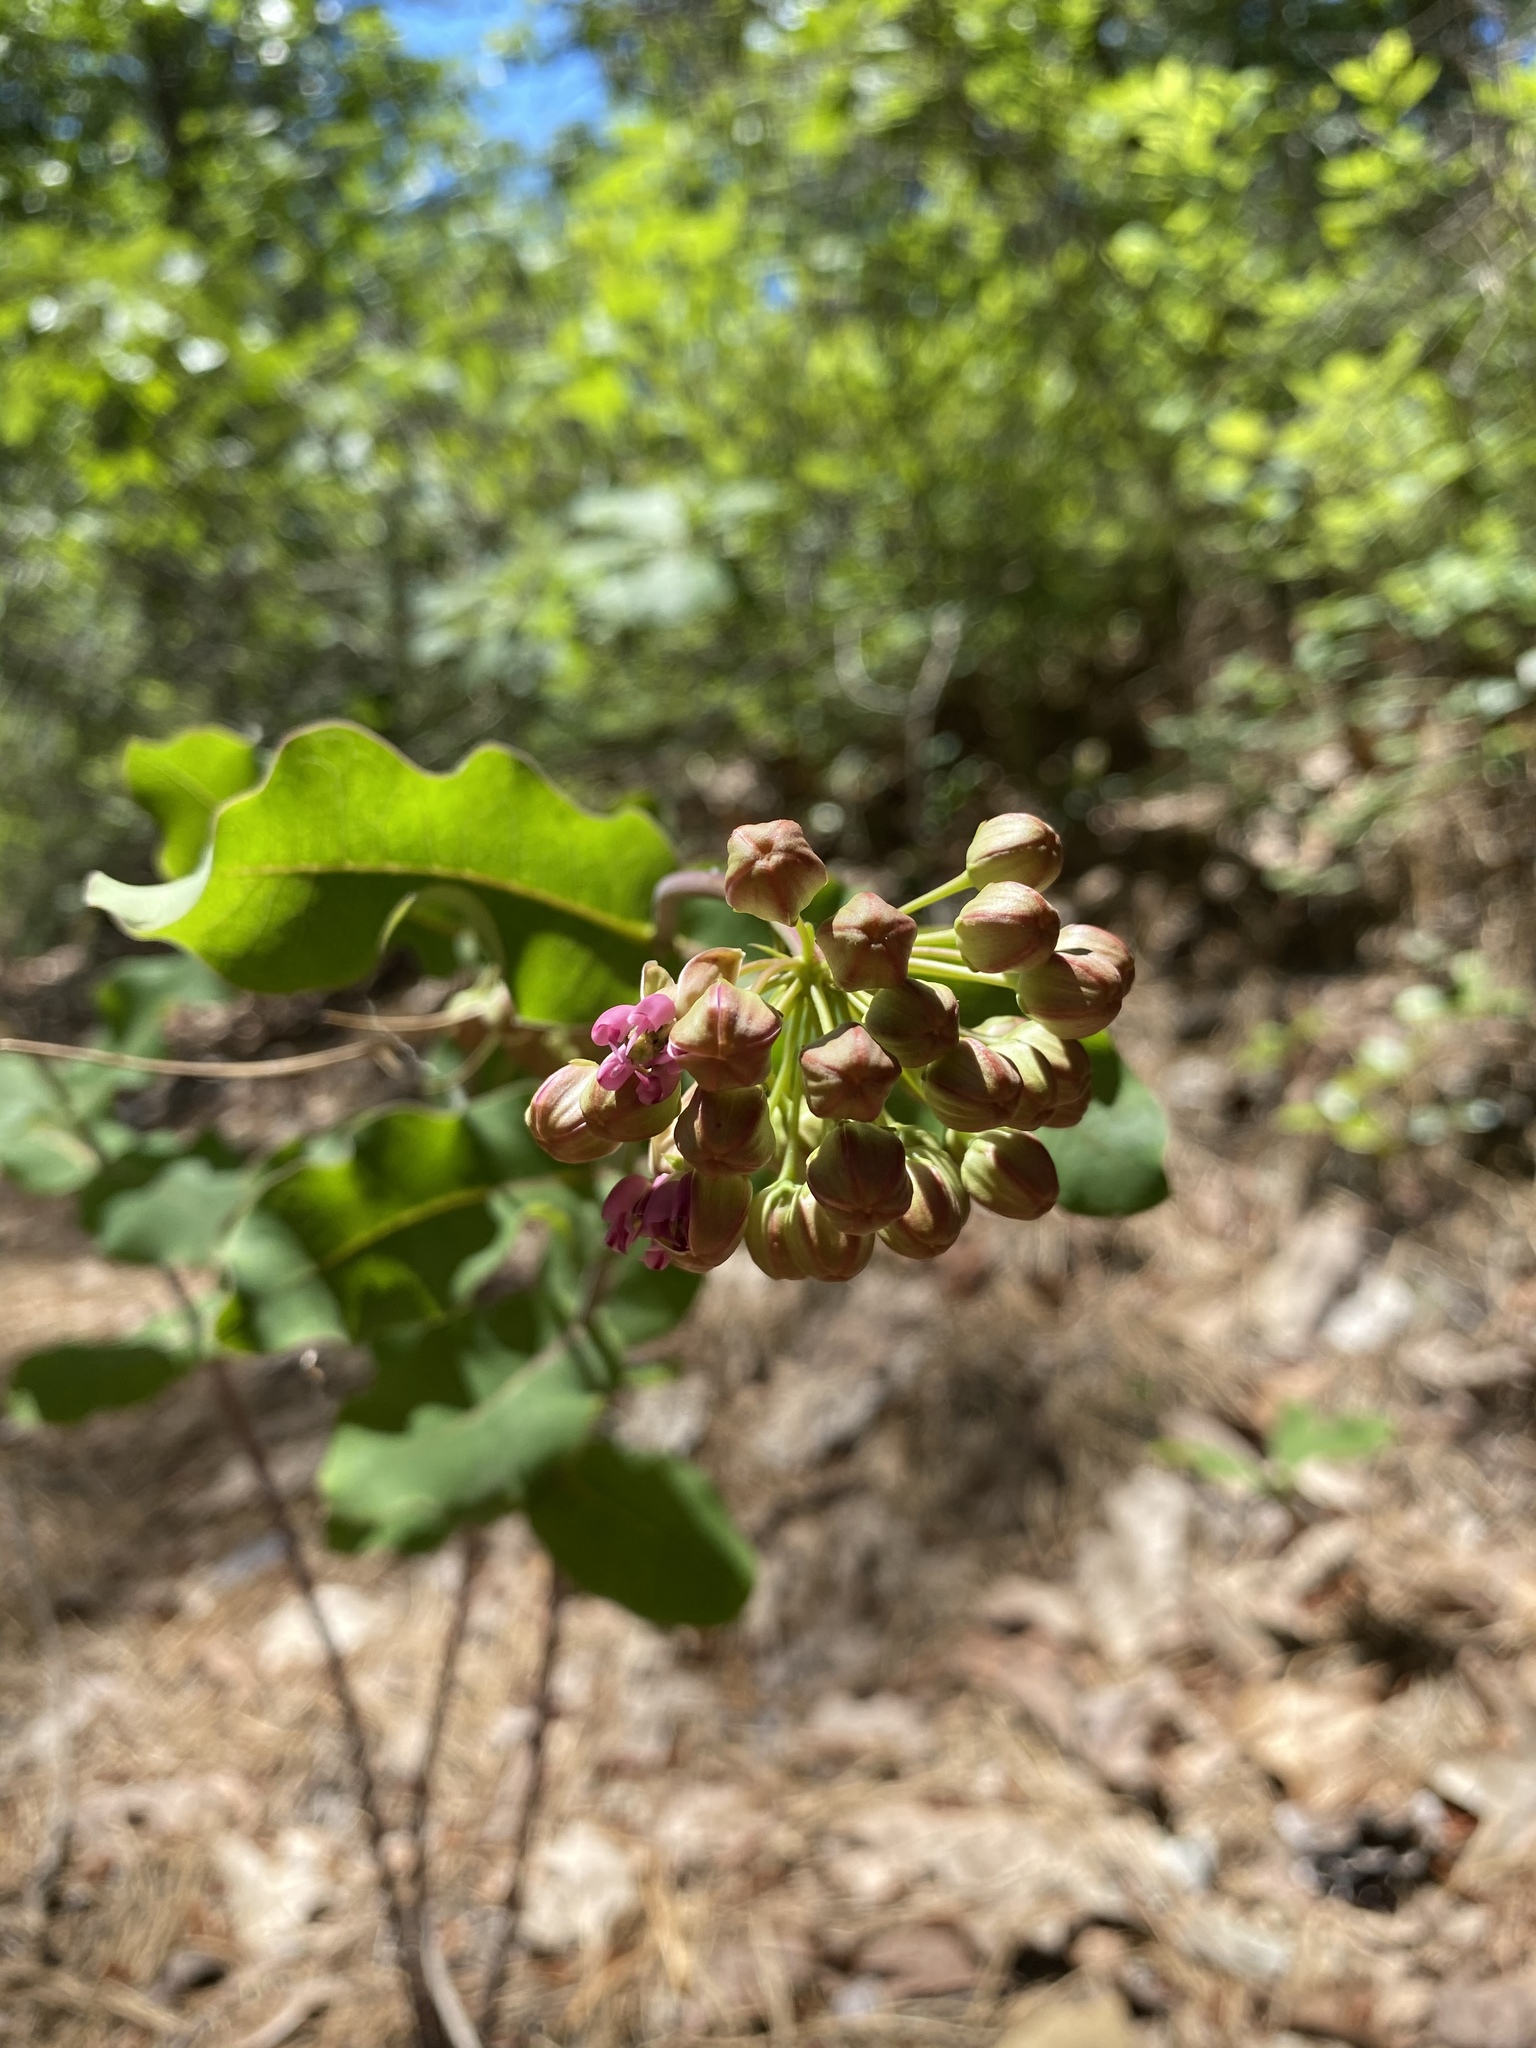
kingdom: Plantae
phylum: Tracheophyta
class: Magnoliopsida
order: Gentianales
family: Apocynaceae
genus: Asclepias
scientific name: Asclepias amplexicaulis
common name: Blunt-leaf milkweed
